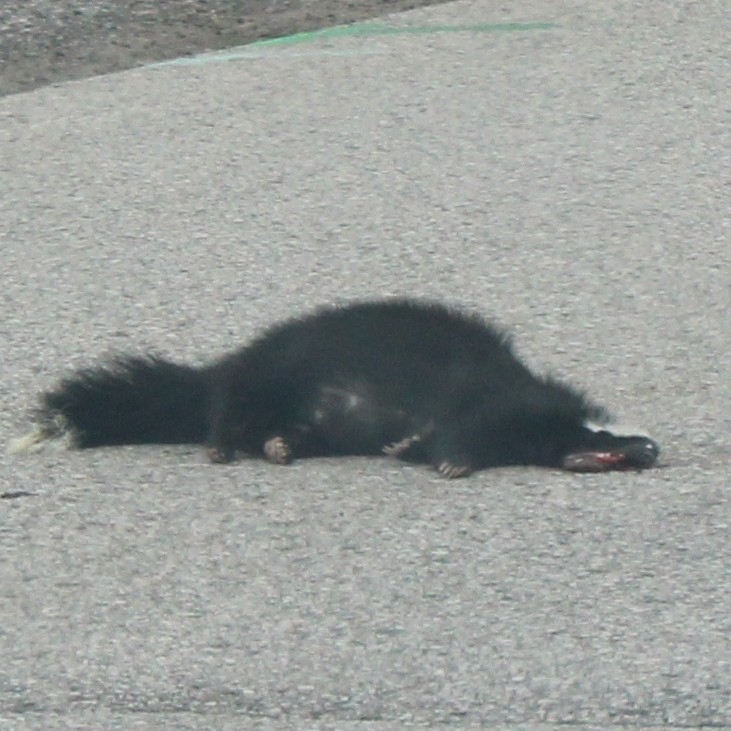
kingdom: Animalia
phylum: Chordata
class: Mammalia
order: Carnivora
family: Mephitidae
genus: Mephitis
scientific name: Mephitis mephitis
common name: Striped skunk
